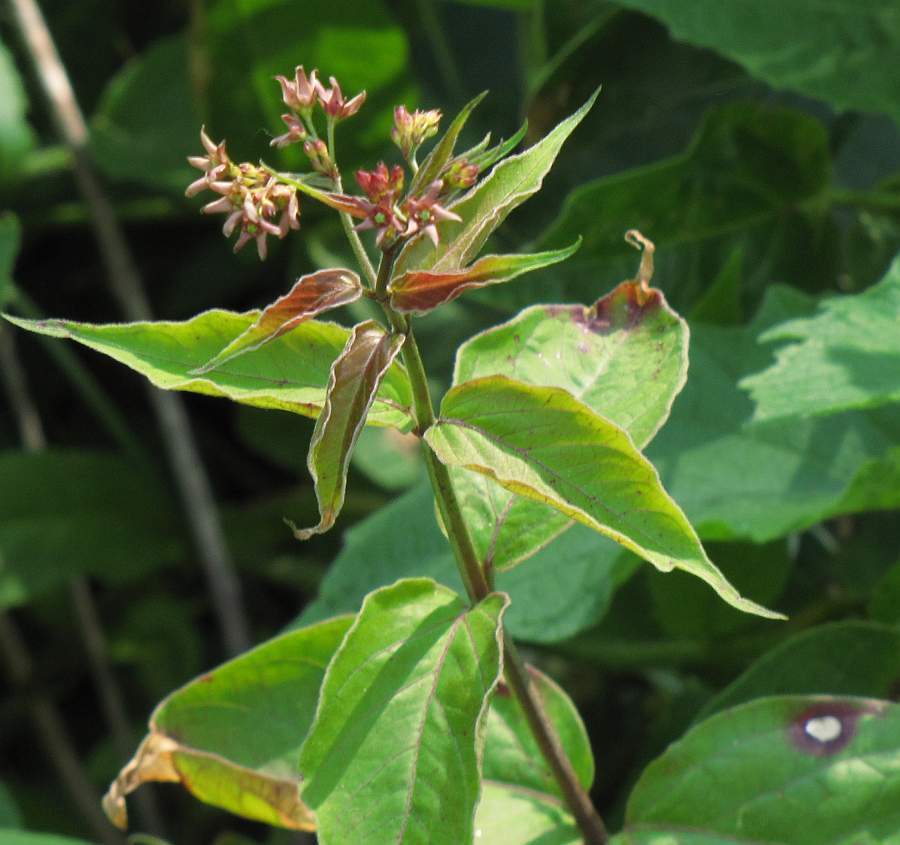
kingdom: Plantae
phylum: Tracheophyta
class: Magnoliopsida
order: Gentianales
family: Apocynaceae
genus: Vincetoxicum
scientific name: Vincetoxicum rossicum
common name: Dog-strangling vine
